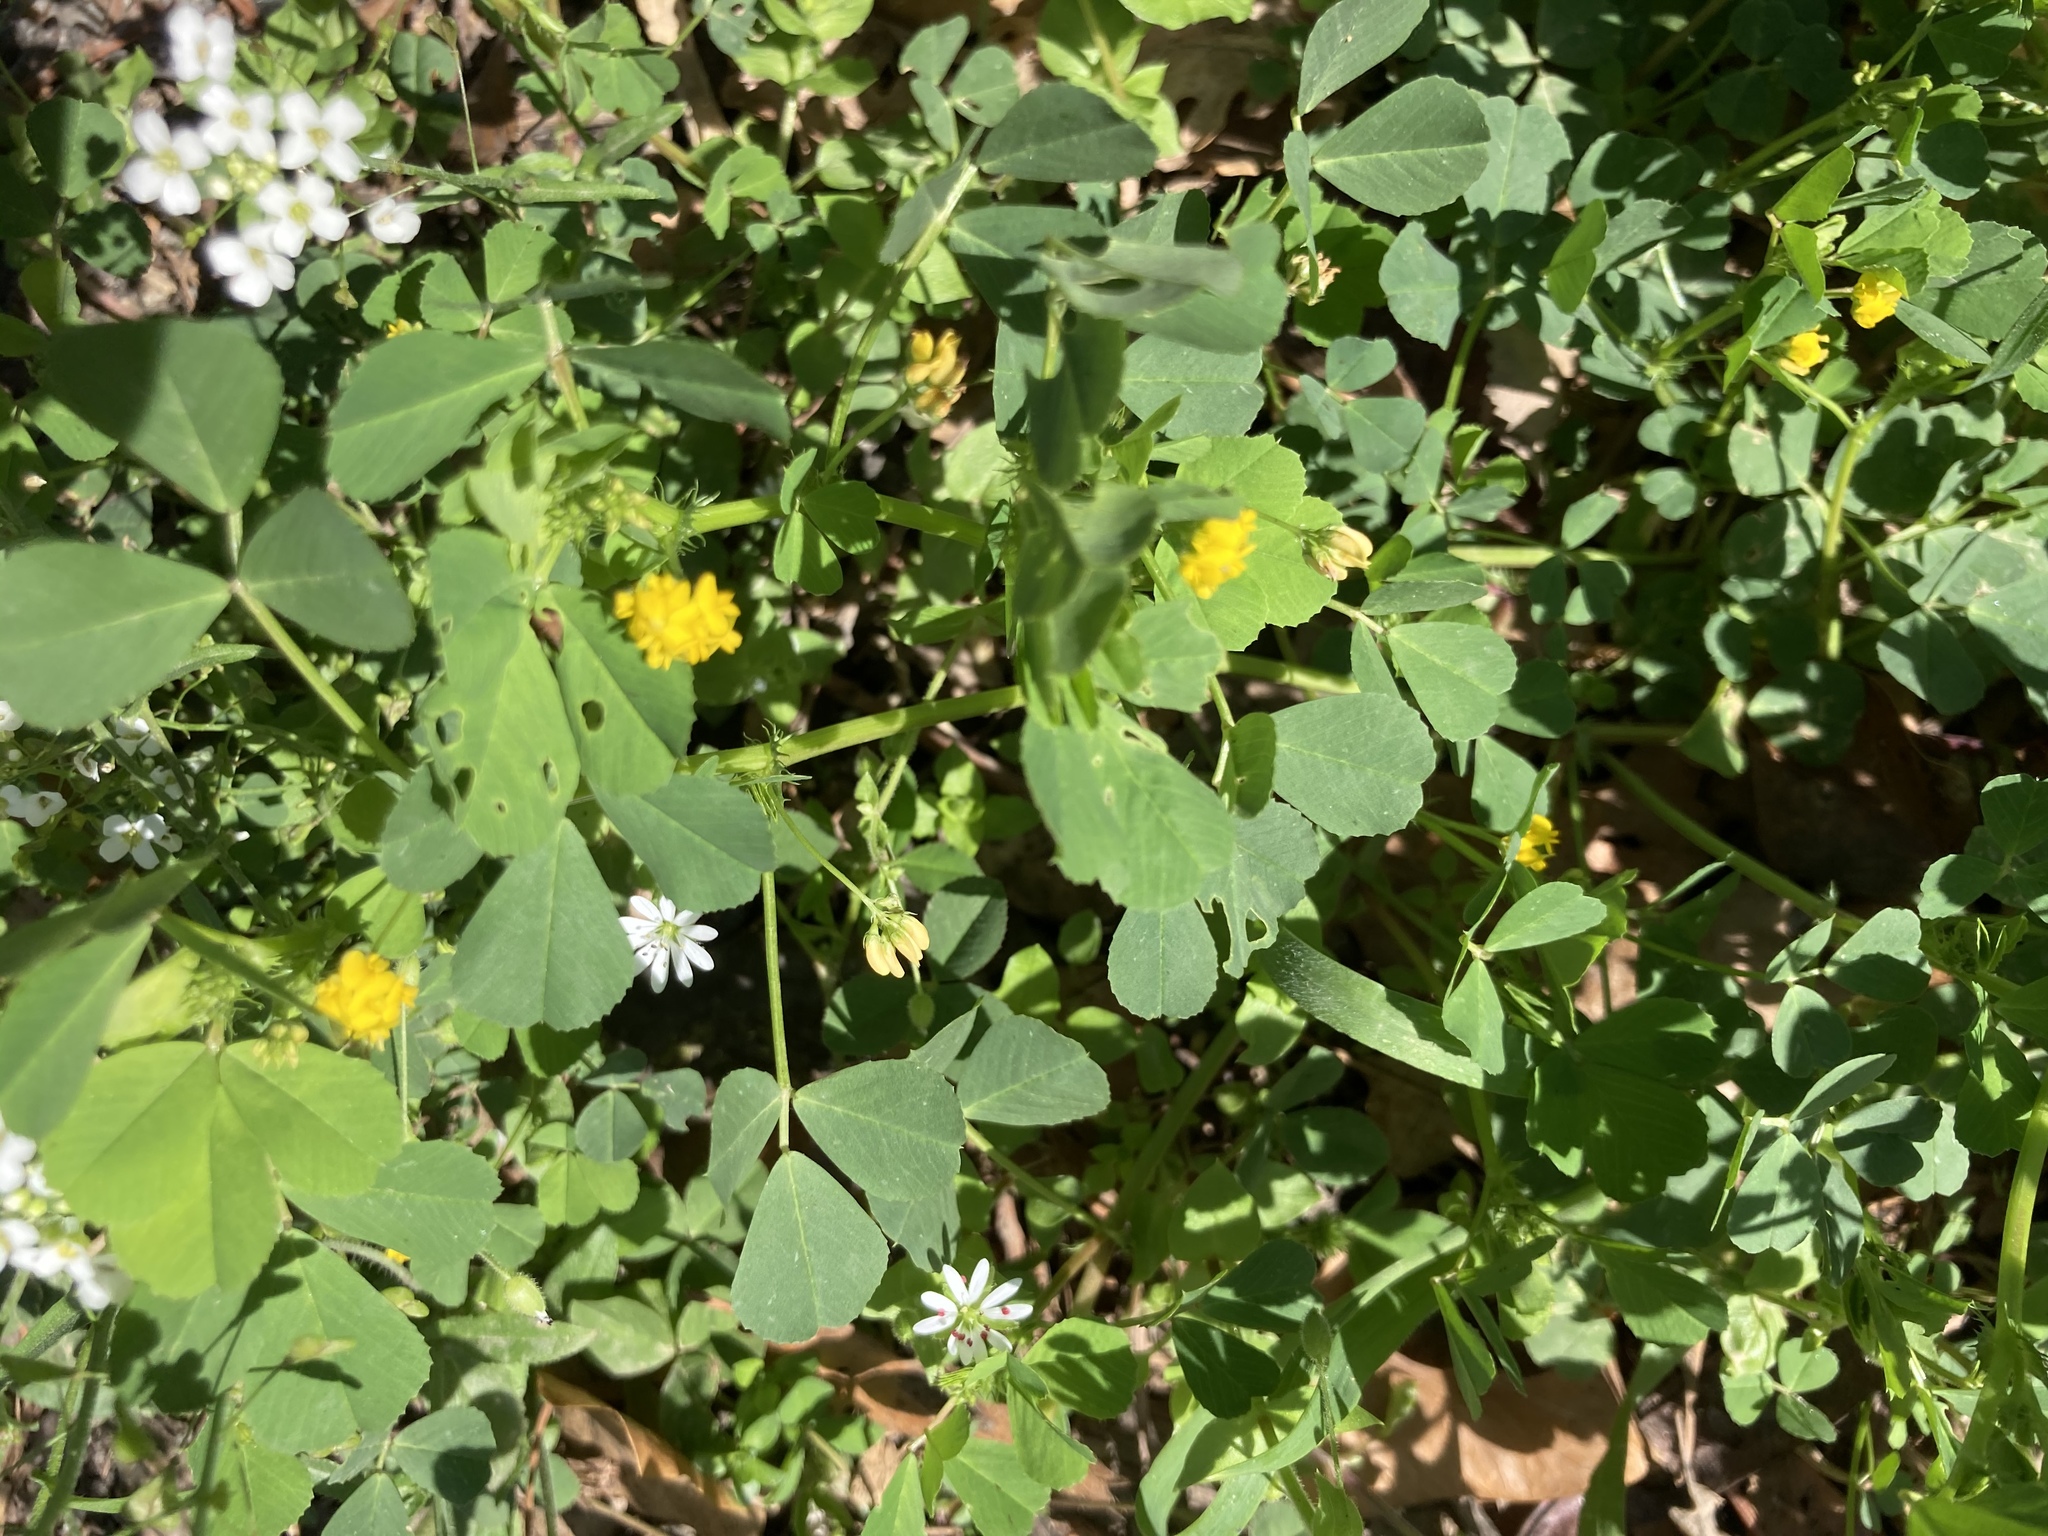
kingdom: Plantae
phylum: Tracheophyta
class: Magnoliopsida
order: Fabales
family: Fabaceae
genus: Medicago
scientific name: Medicago
